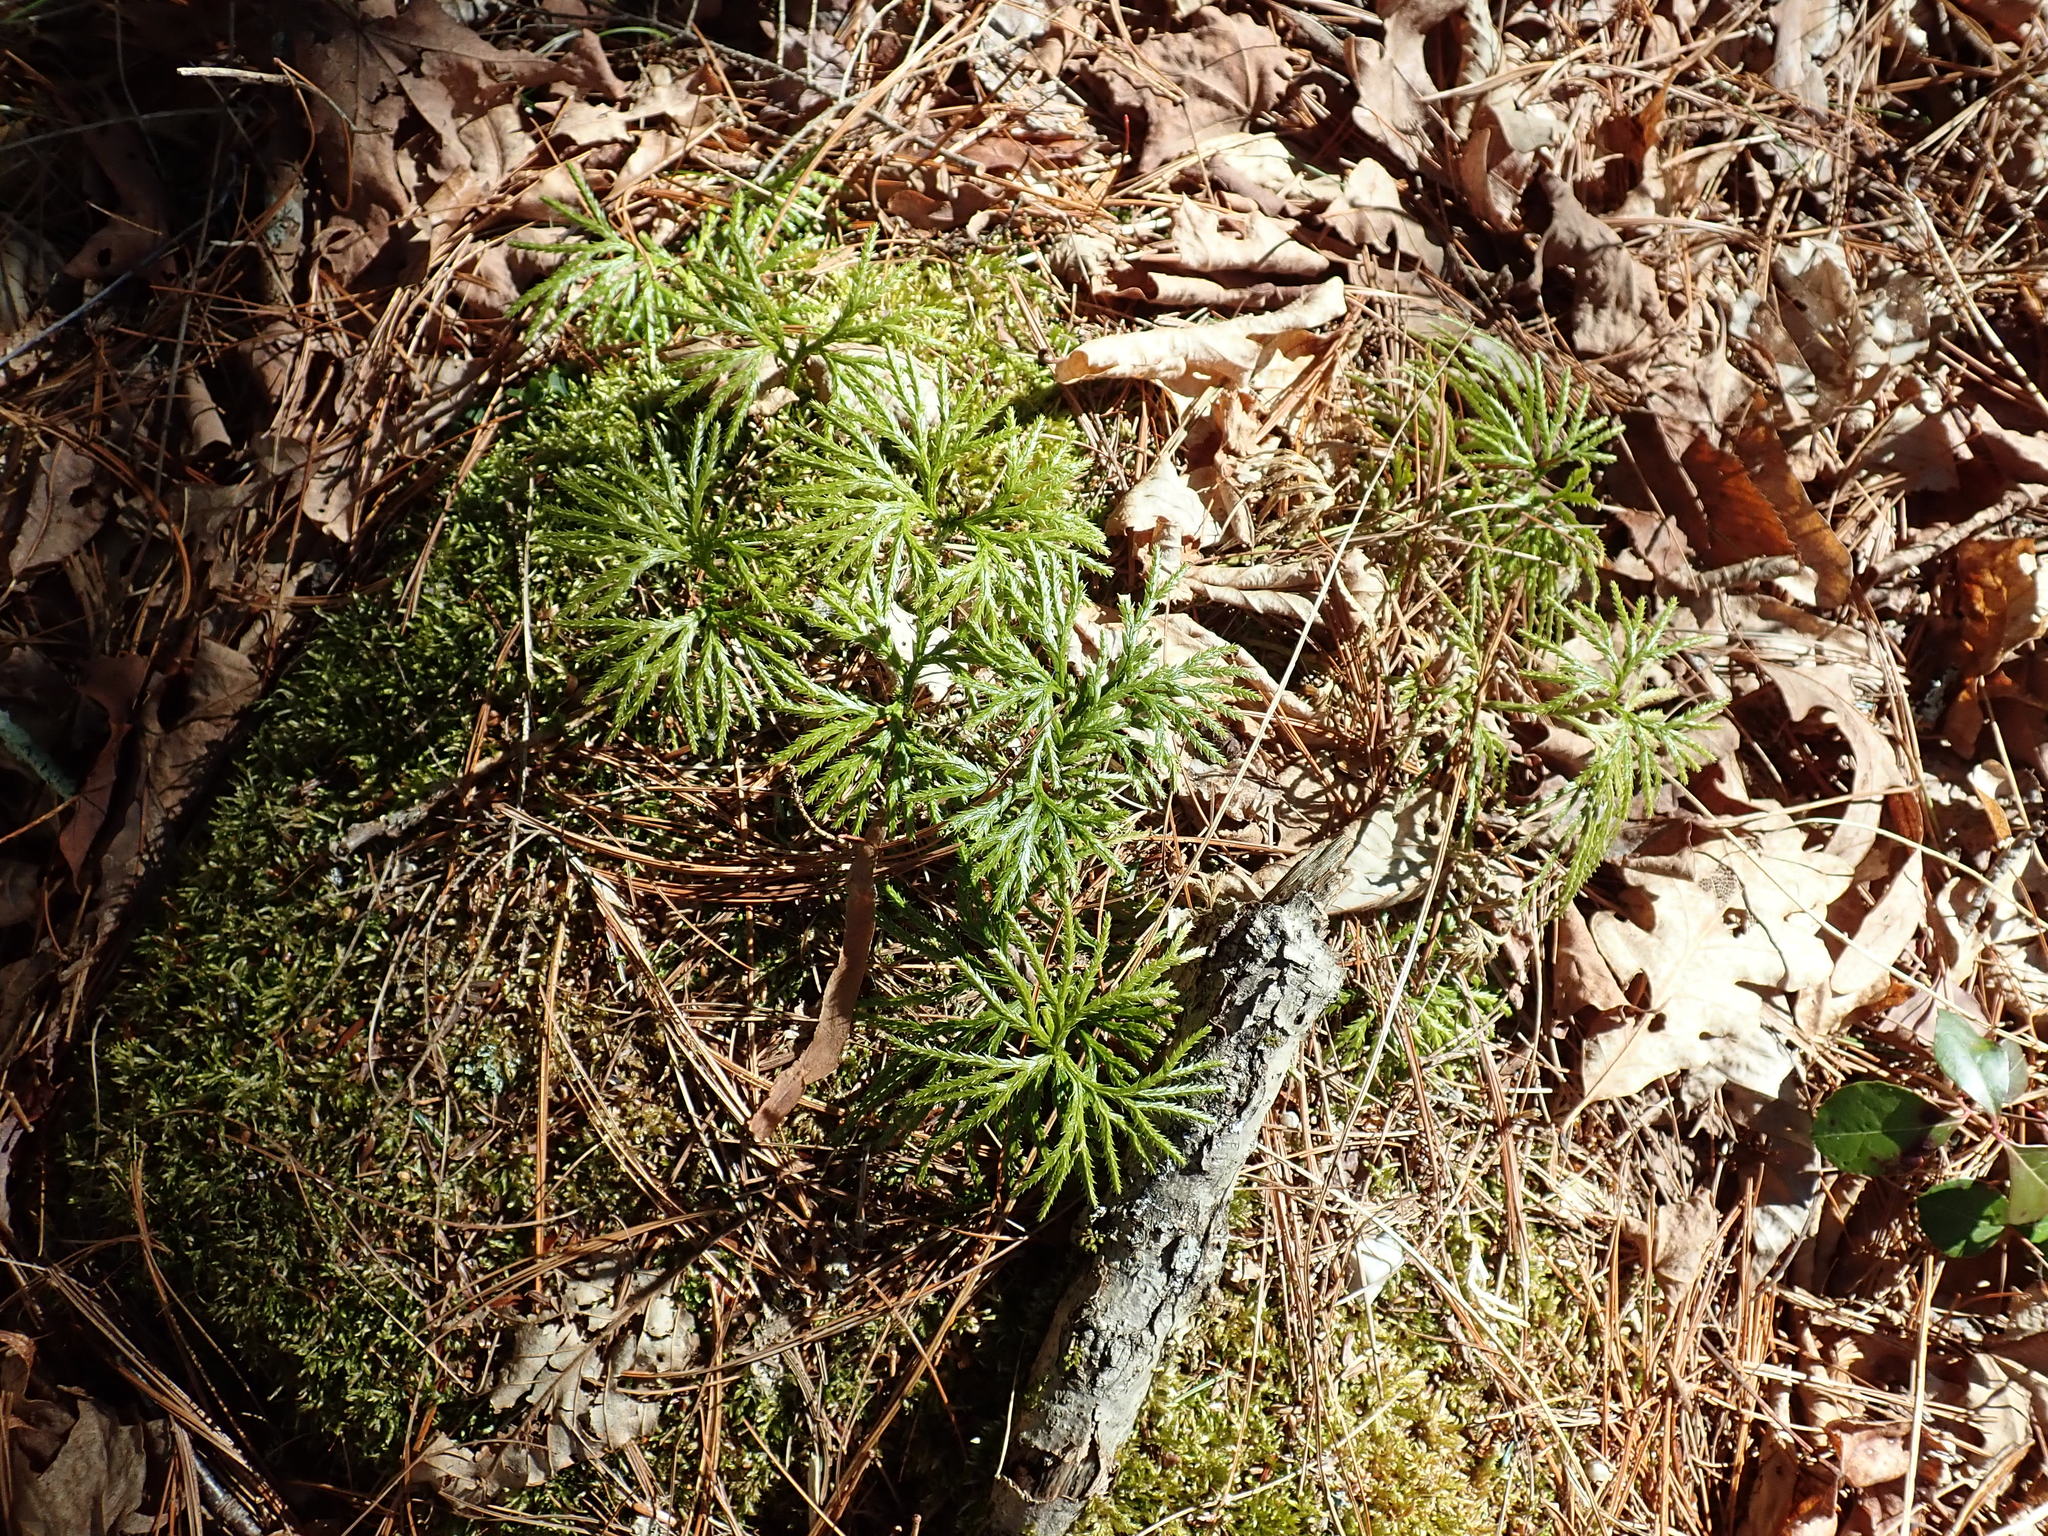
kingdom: Plantae
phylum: Tracheophyta
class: Lycopodiopsida
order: Lycopodiales
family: Lycopodiaceae
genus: Diphasiastrum
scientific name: Diphasiastrum digitatum
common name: Southern running-pine
